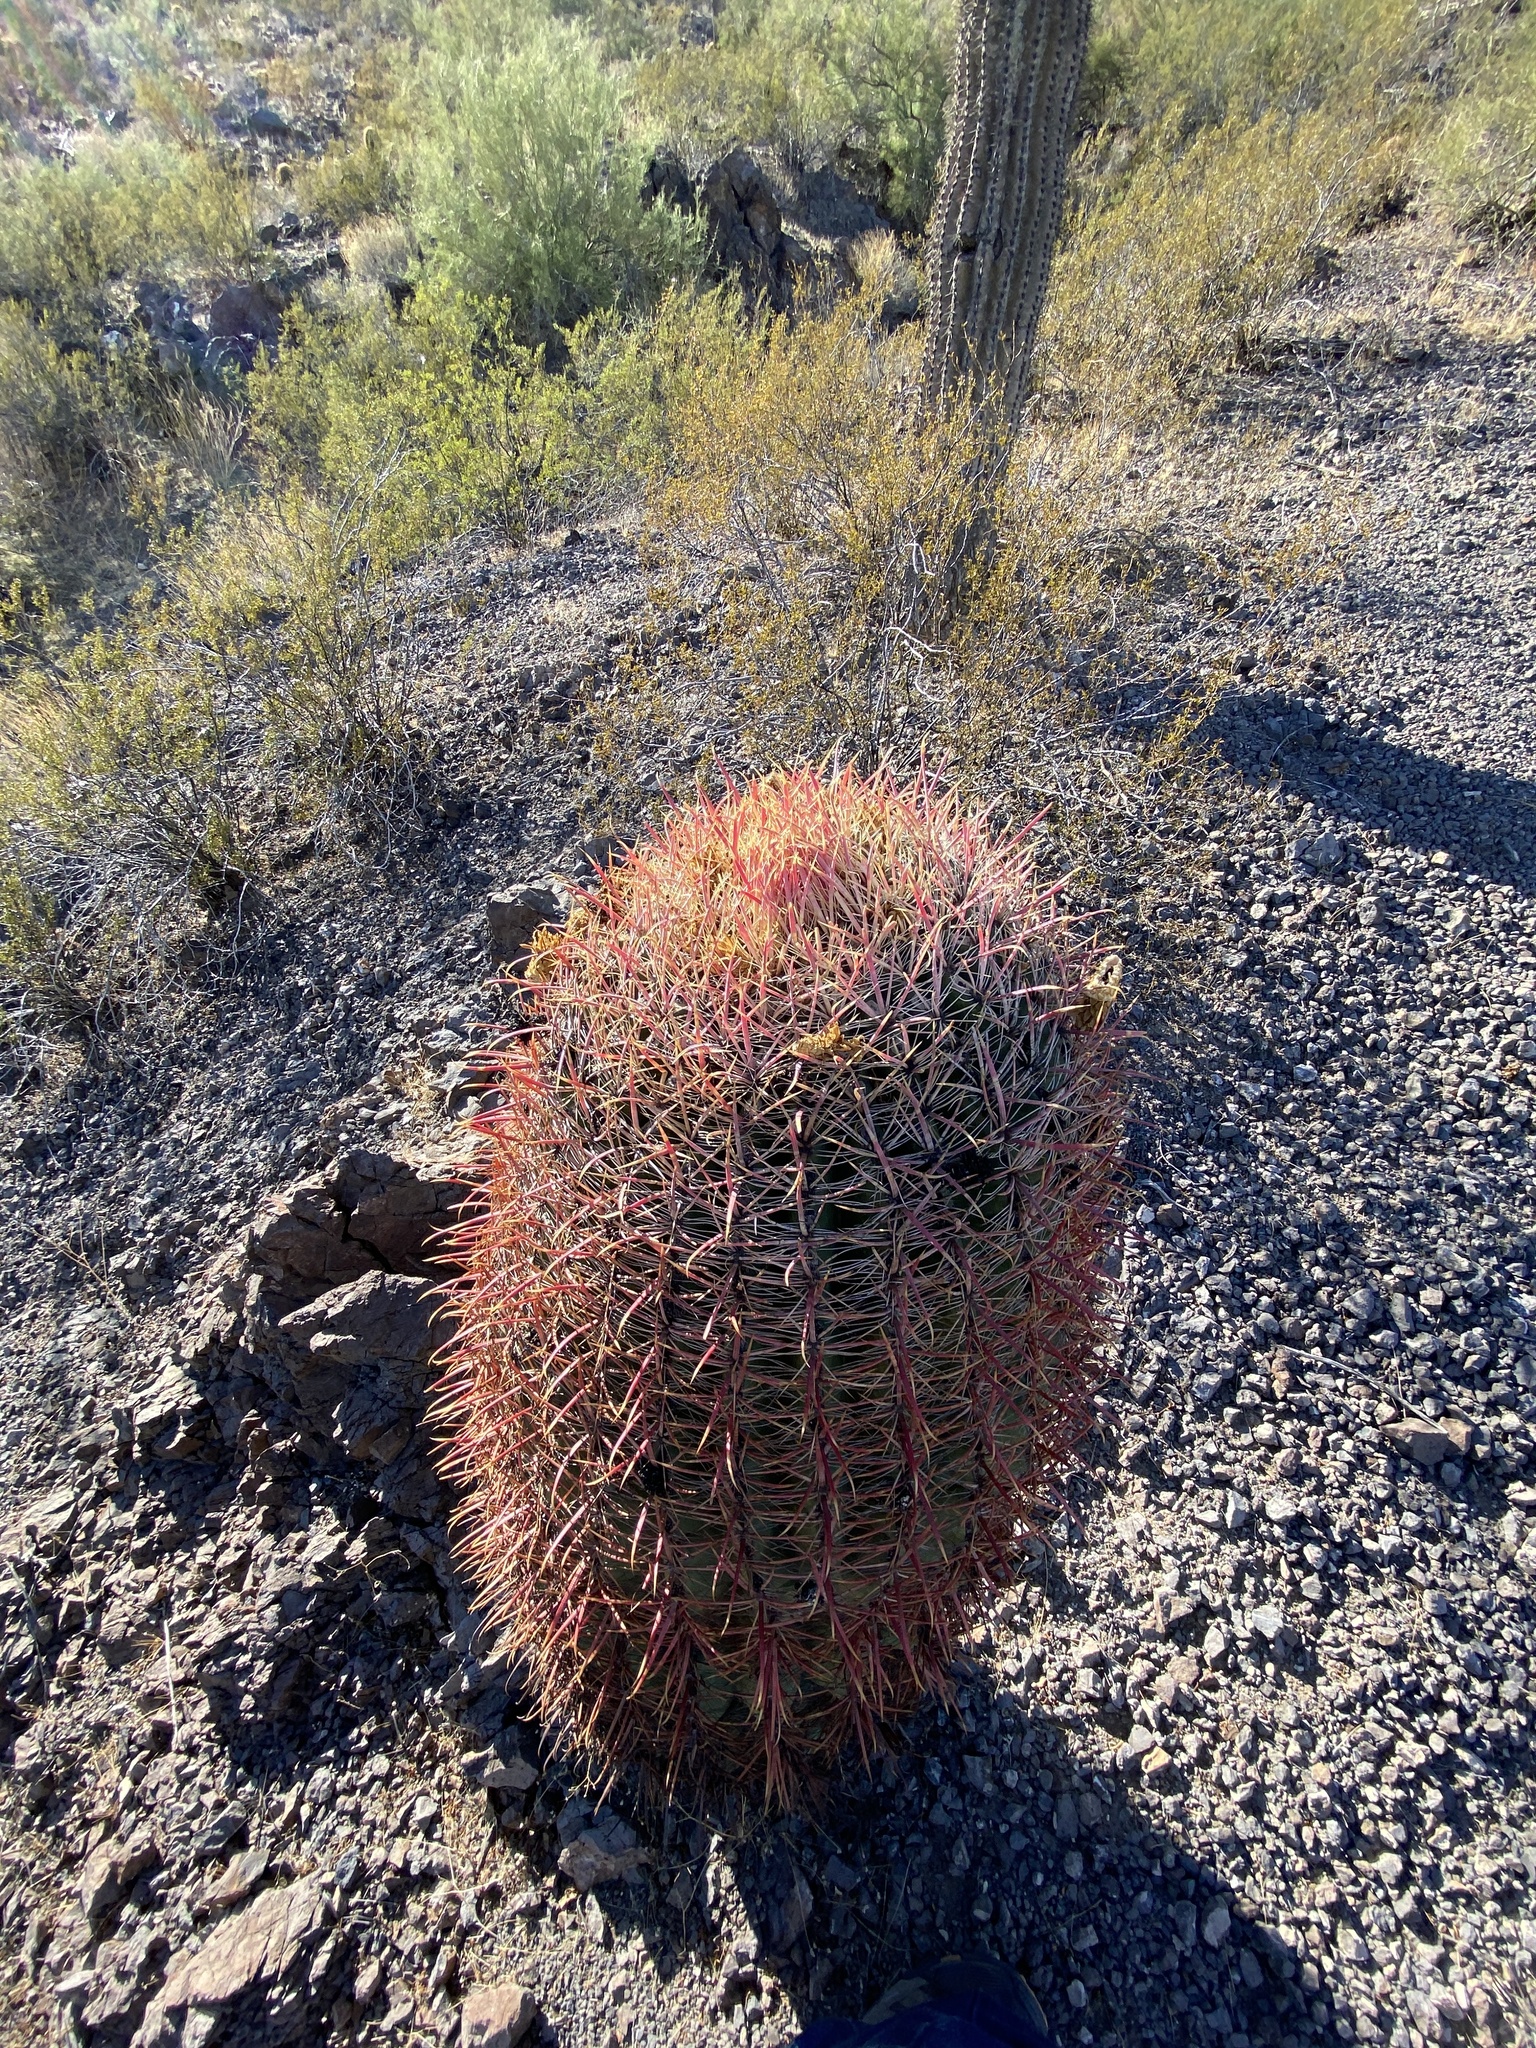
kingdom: Plantae
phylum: Tracheophyta
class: Magnoliopsida
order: Caryophyllales
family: Cactaceae
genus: Ferocactus
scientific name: Ferocactus cylindraceus
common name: California barrel cactus
